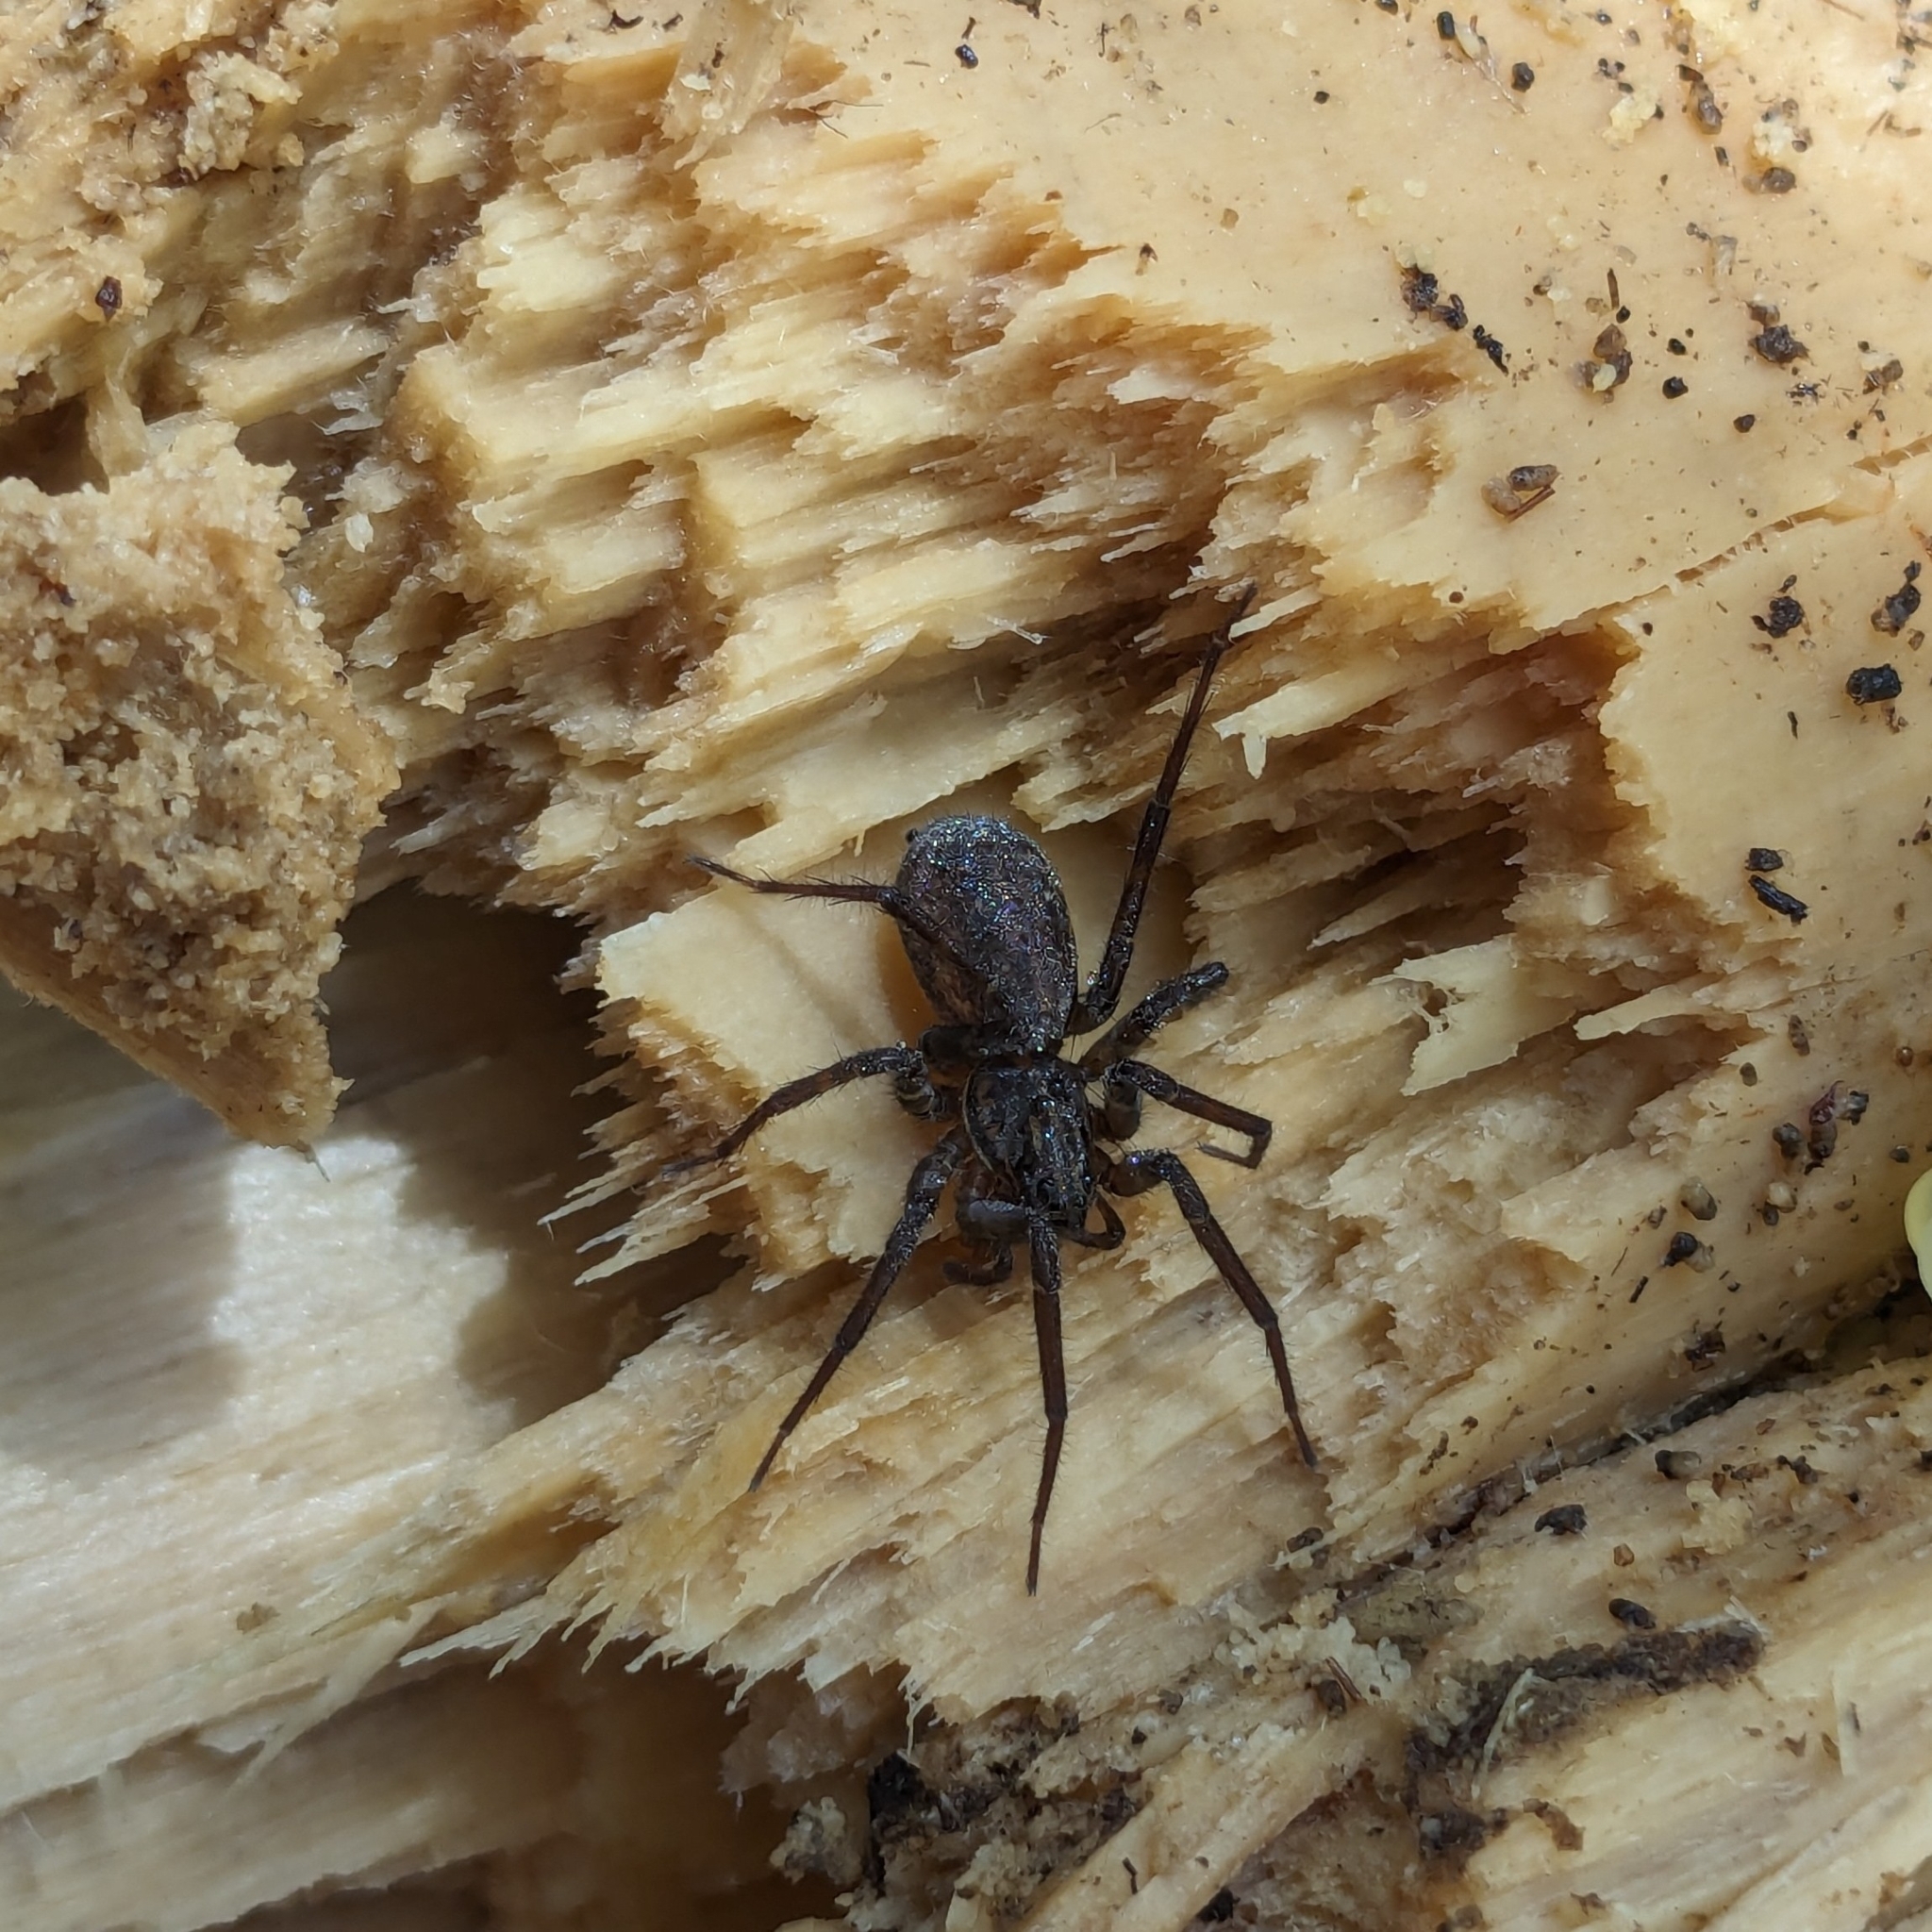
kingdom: Animalia
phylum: Arthropoda
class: Arachnida
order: Araneae
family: Lycosidae
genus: Allotrochosina
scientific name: Allotrochosina schauinslandi
